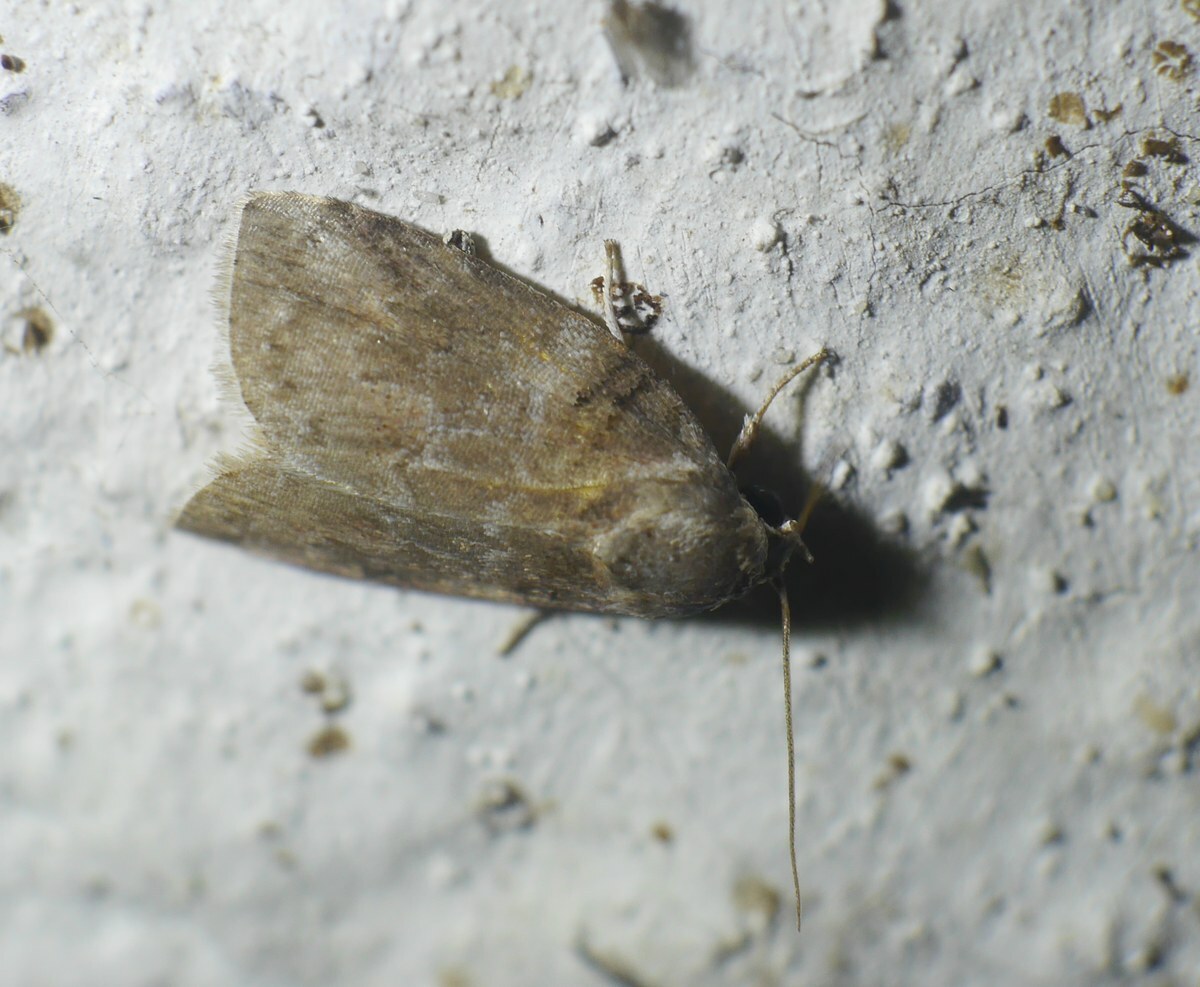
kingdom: Animalia
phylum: Arthropoda
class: Insecta
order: Lepidoptera
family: Nolidae
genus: Garella
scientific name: Garella musculana
